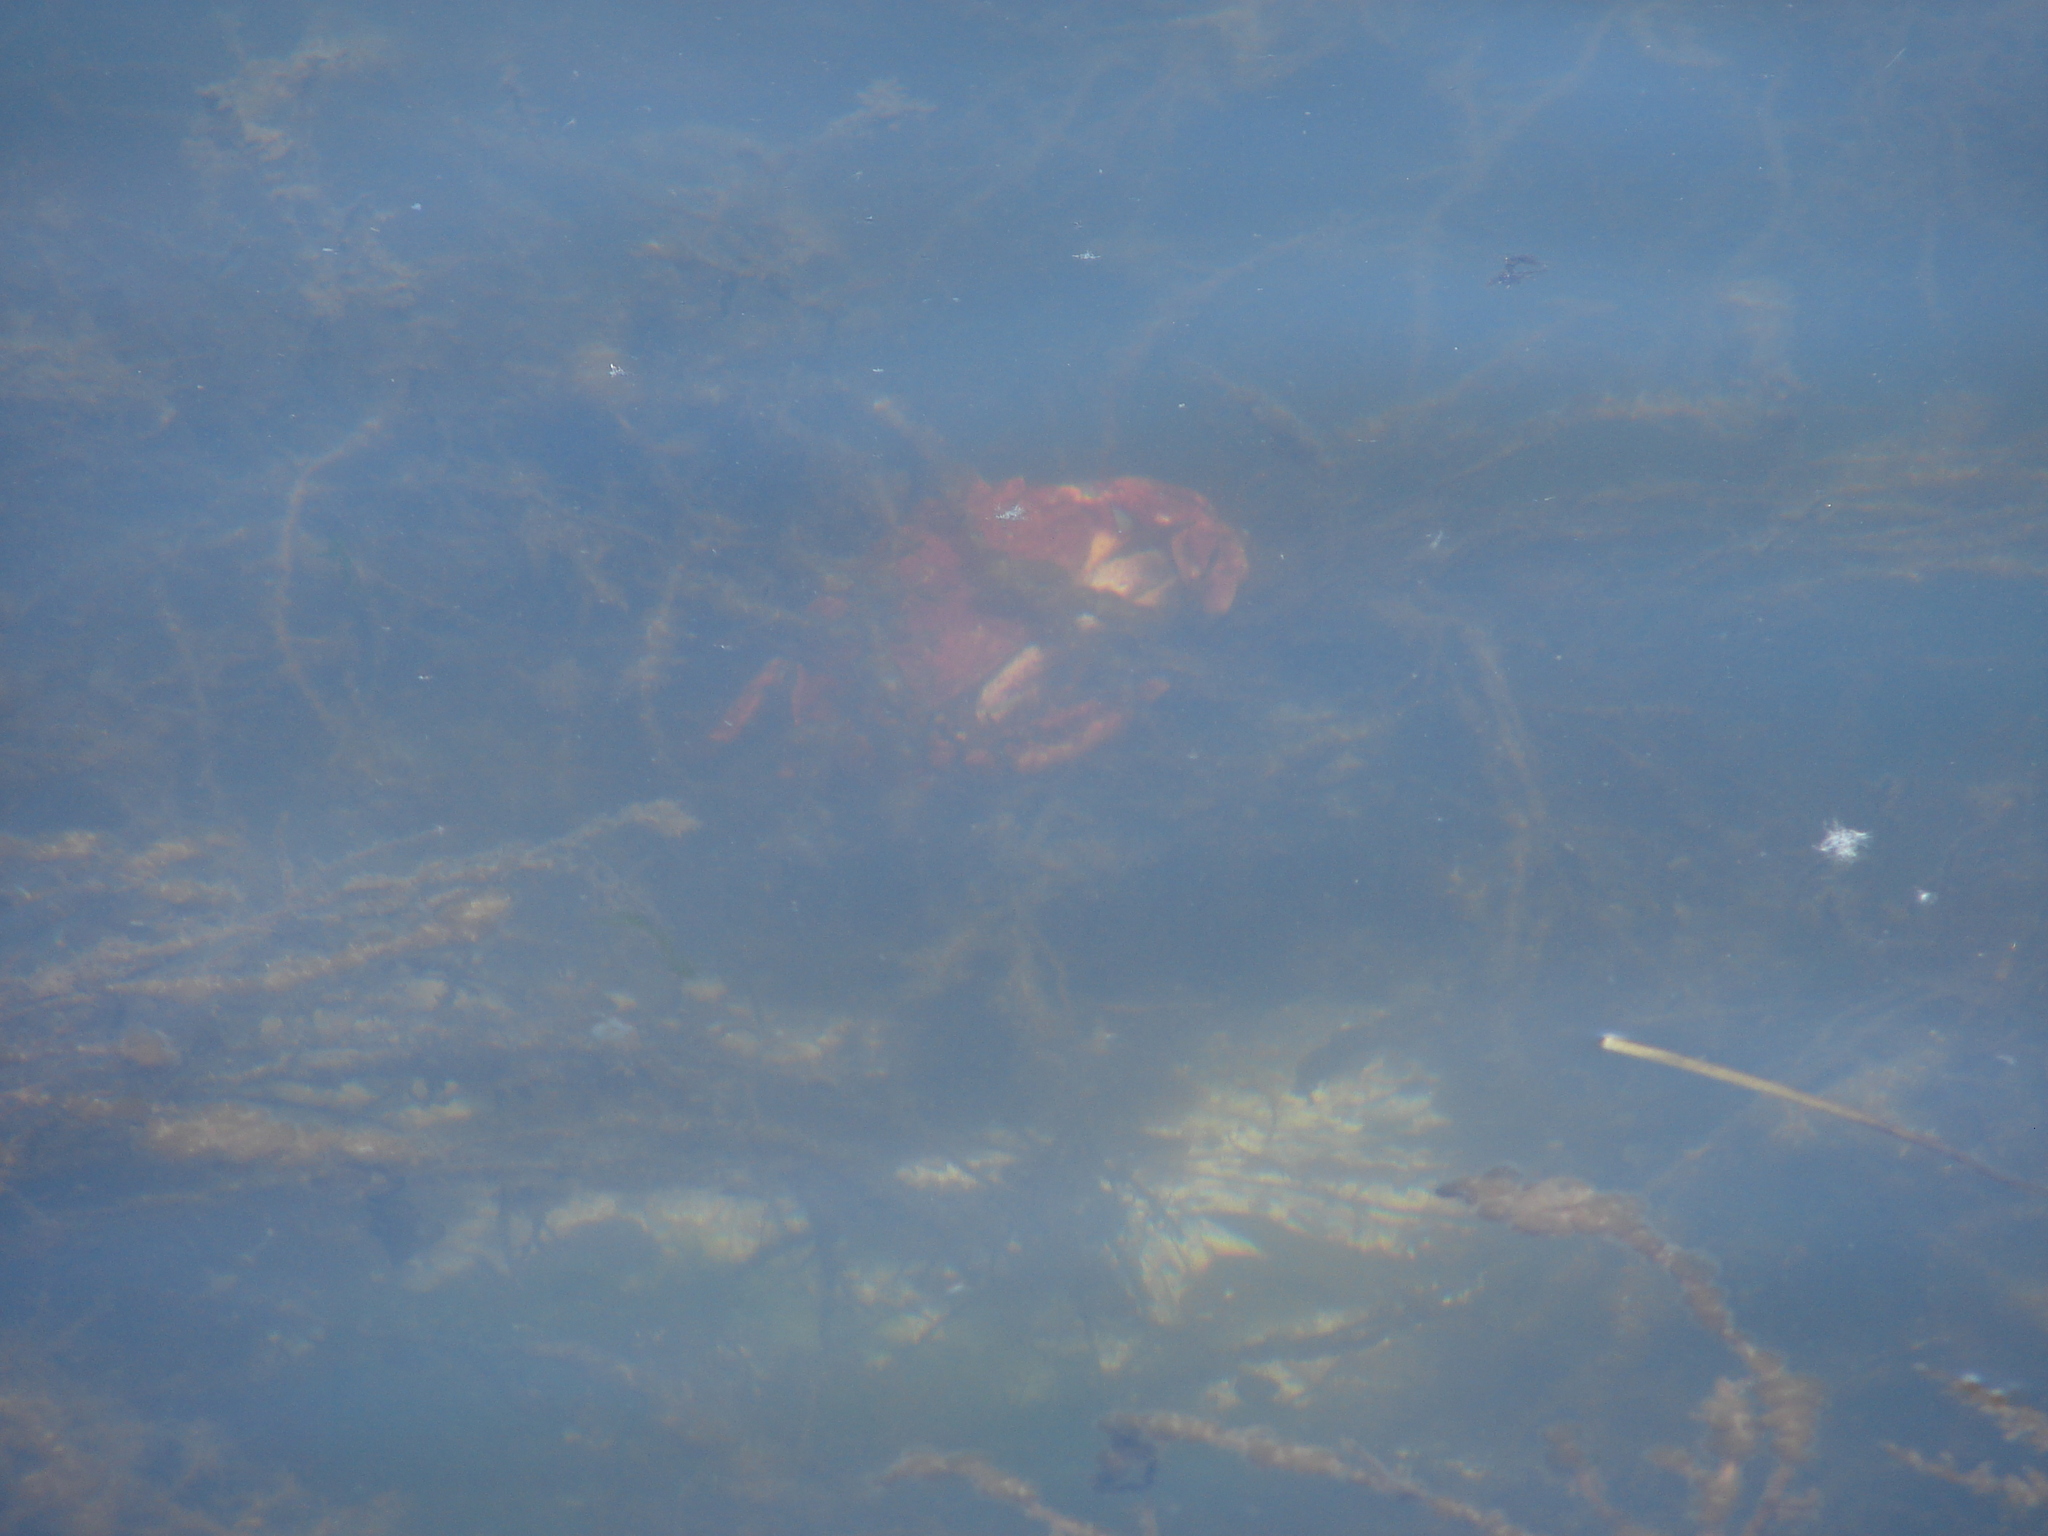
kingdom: Animalia
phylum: Arthropoda
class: Malacostraca
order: Decapoda
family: Cancridae
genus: Cancer
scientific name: Cancer productus
